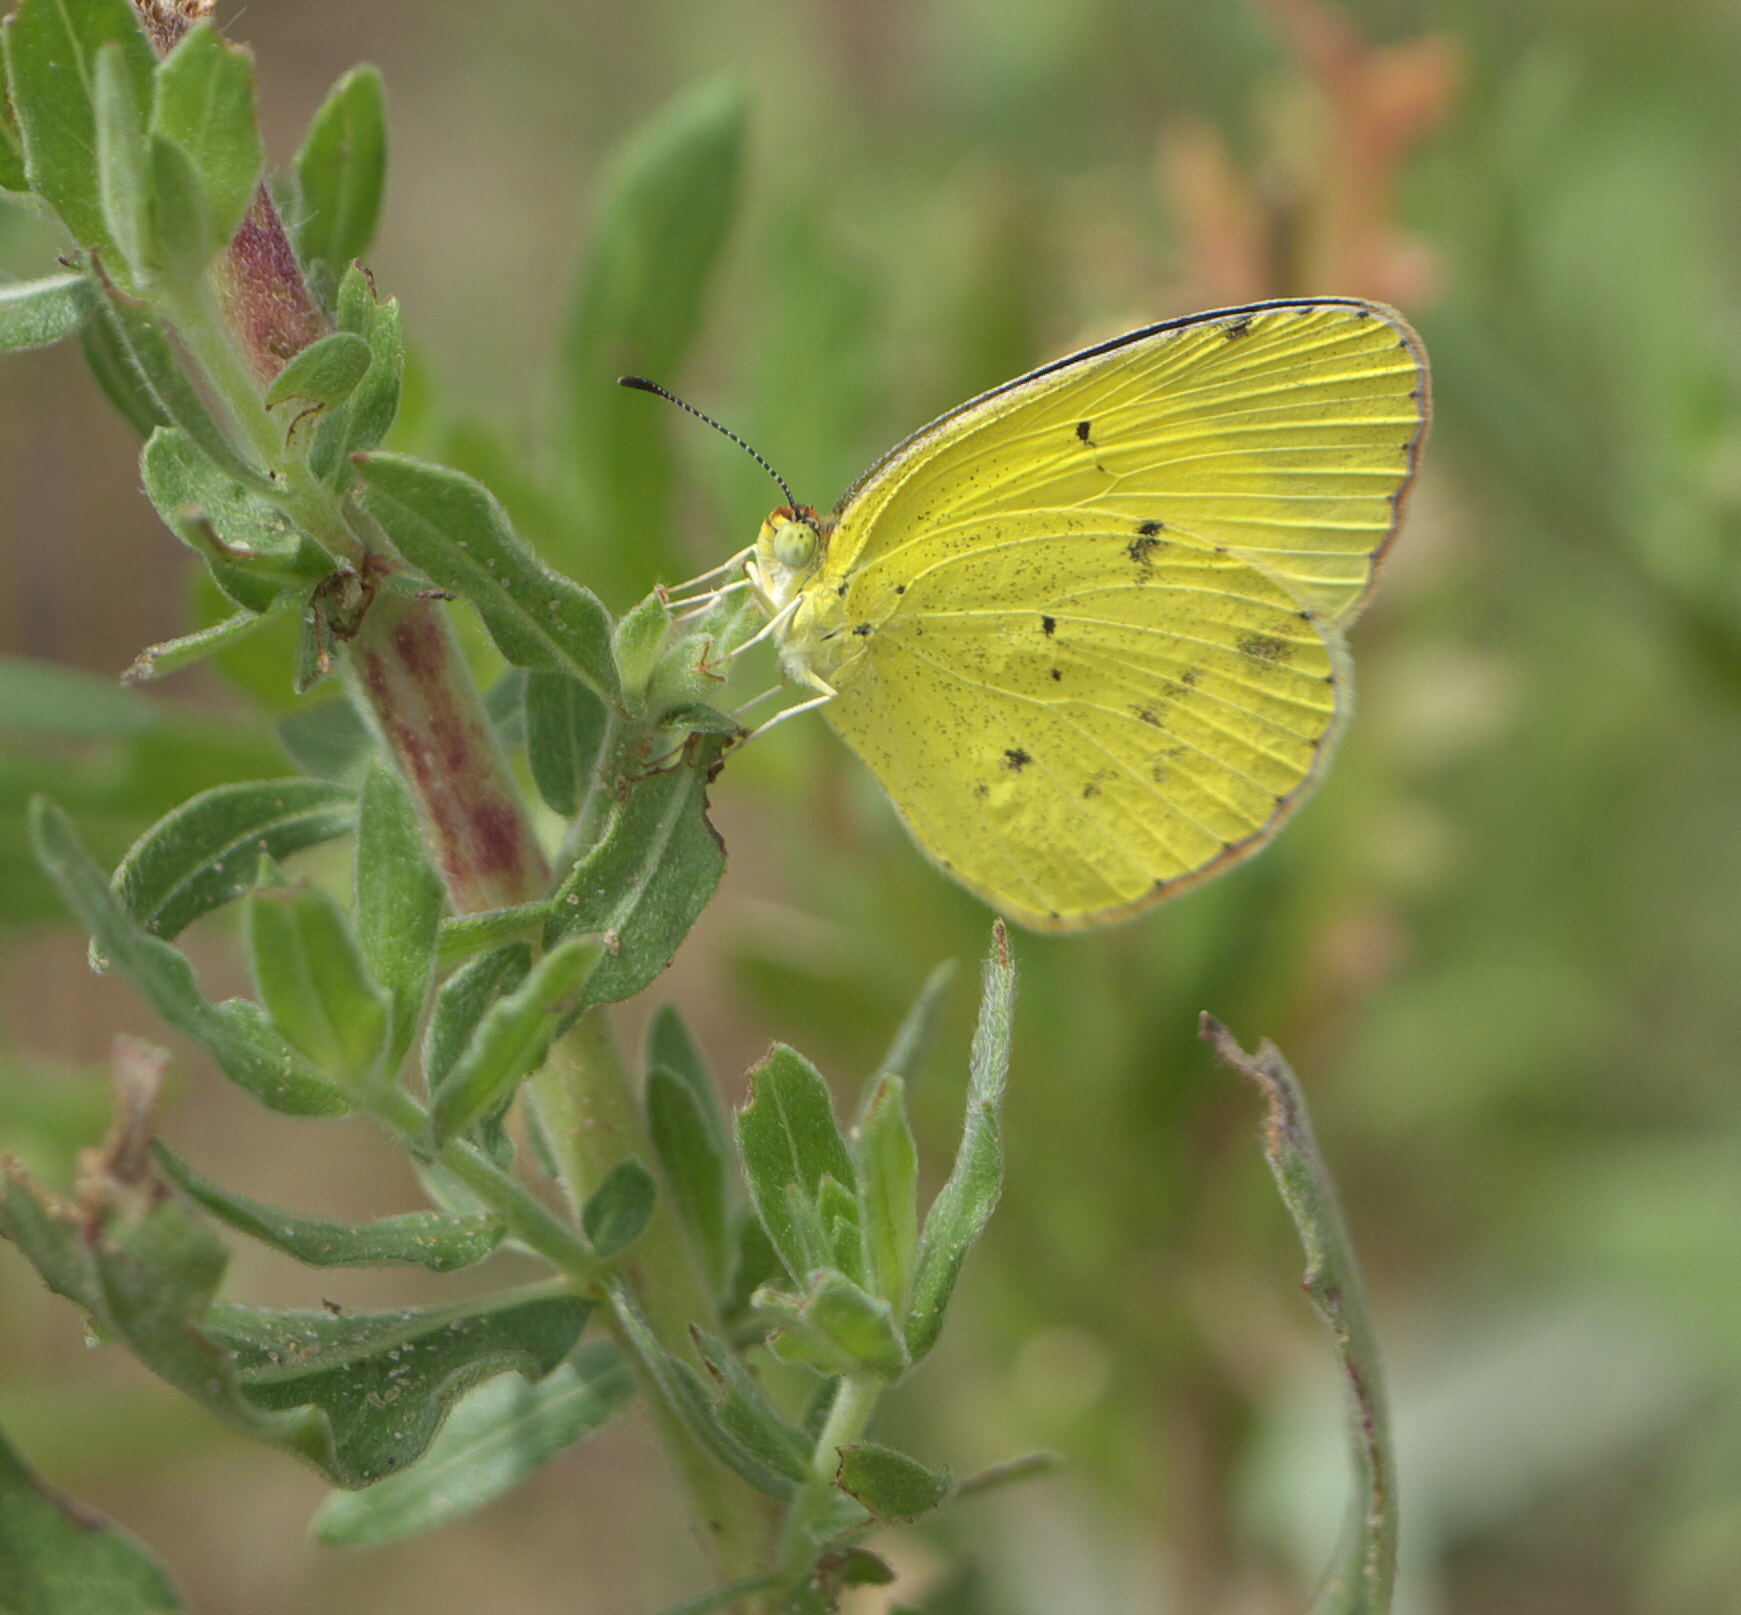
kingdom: Animalia
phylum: Arthropoda
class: Insecta
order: Lepidoptera
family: Pieridae
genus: Pyrisitia
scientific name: Pyrisitia lisa
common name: Little yellow
